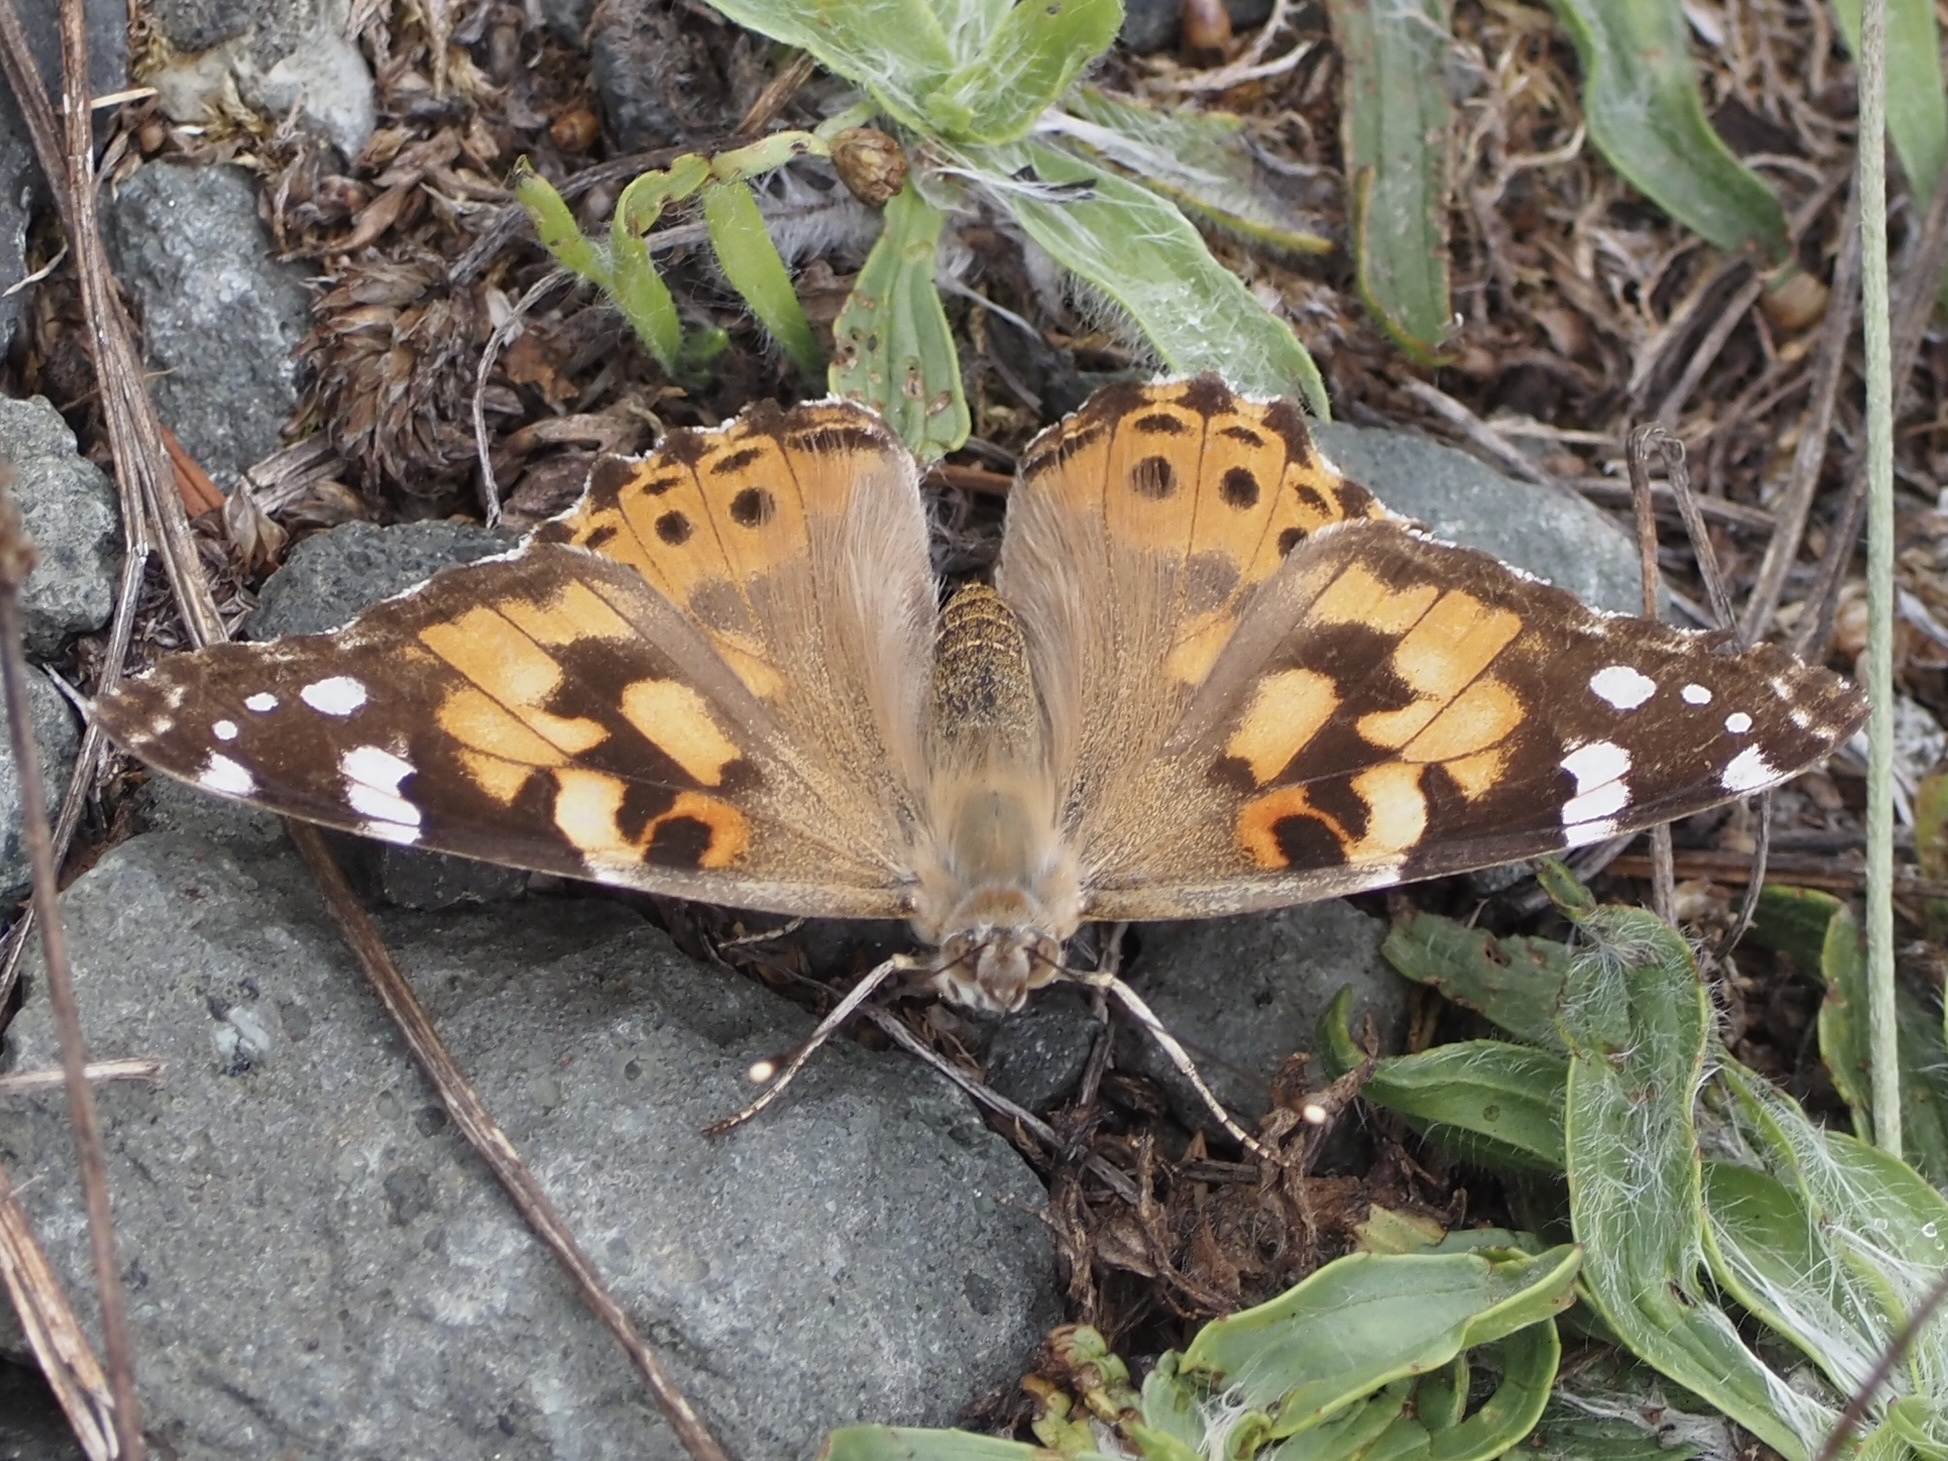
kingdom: Animalia
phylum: Arthropoda
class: Insecta
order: Lepidoptera
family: Nymphalidae
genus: Vanessa
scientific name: Vanessa cardui
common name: Painted lady
